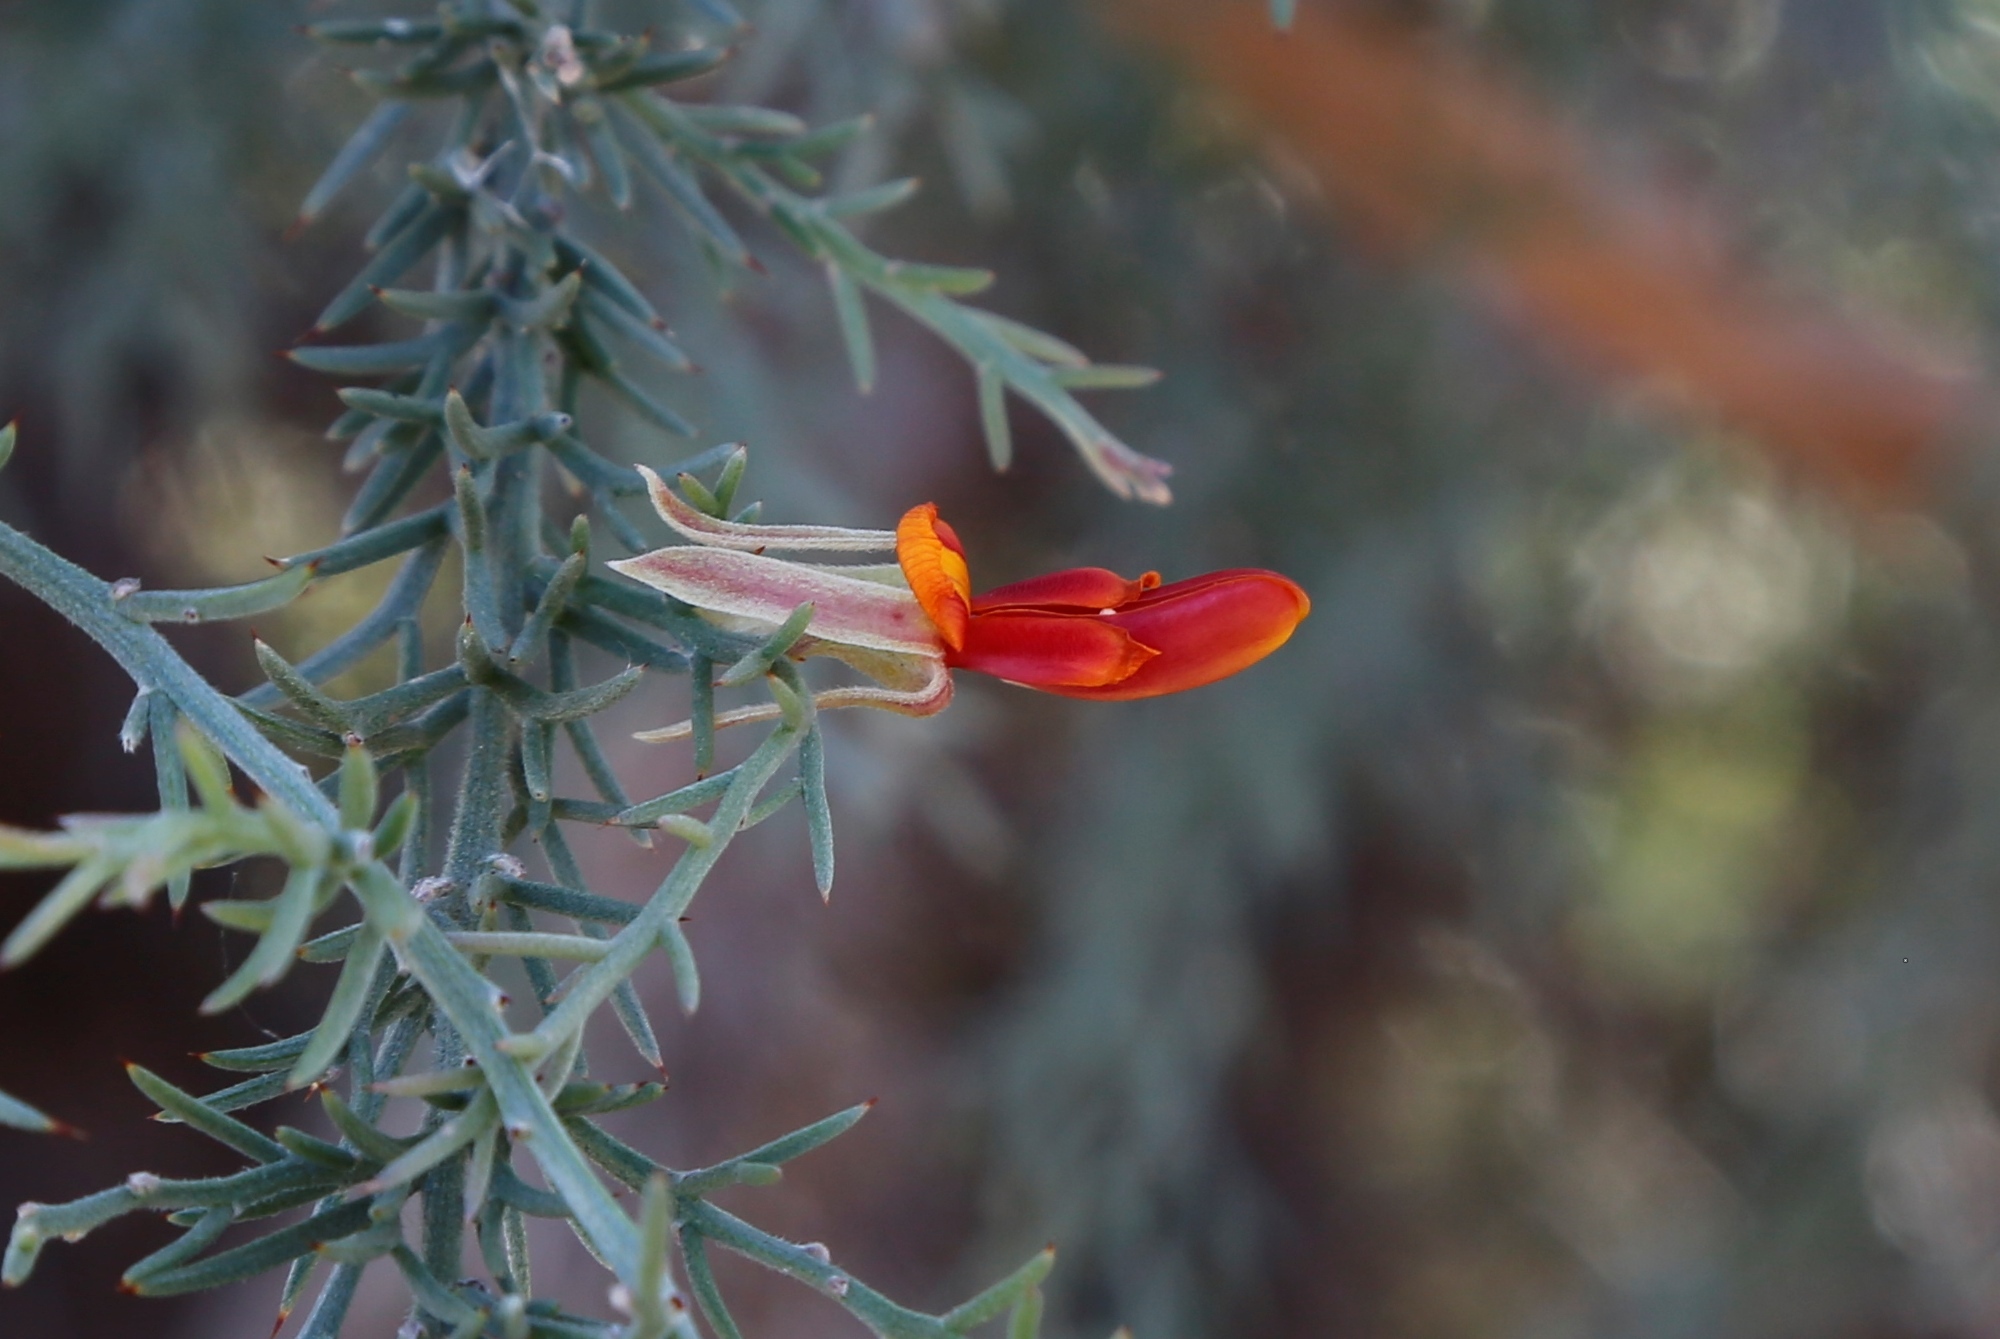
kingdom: Plantae
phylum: Tracheophyta
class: Magnoliopsida
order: Fabales
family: Fabaceae
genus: Jacksonia
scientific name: Jacksonia furcellata
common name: Grey stinkwood
